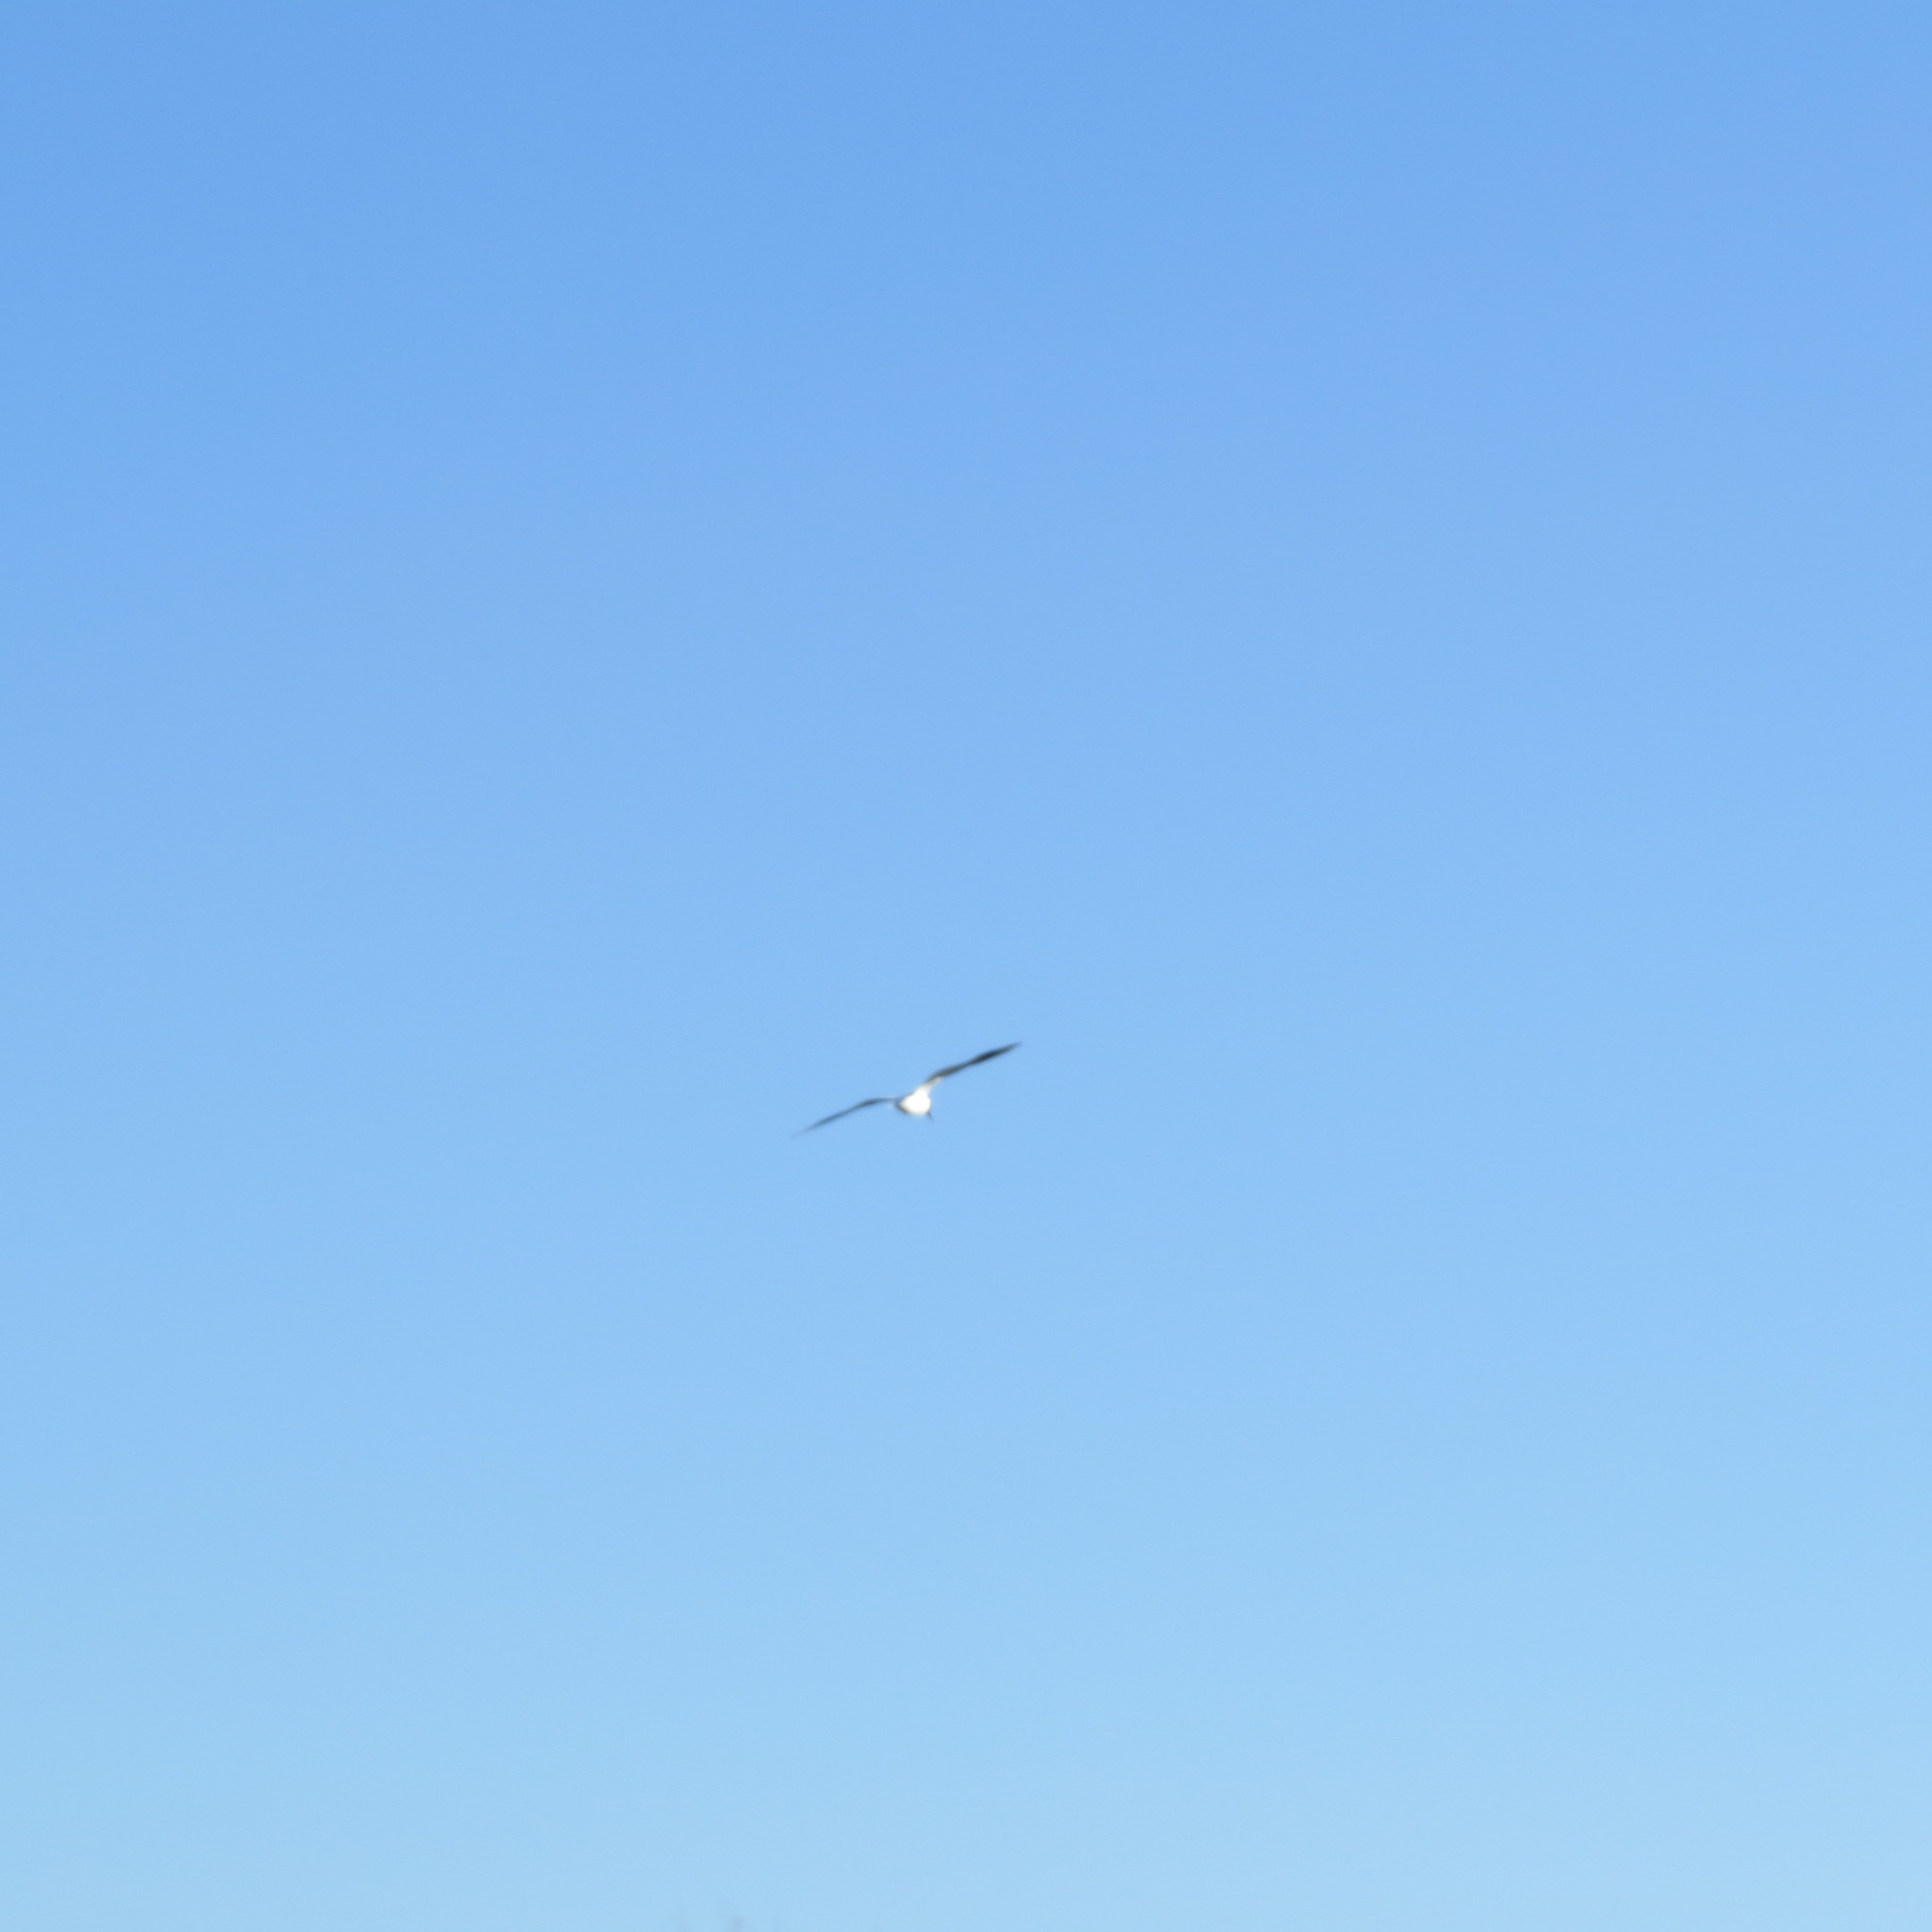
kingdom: Animalia
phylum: Chordata
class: Aves
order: Charadriiformes
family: Laridae
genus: Chroicocephalus
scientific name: Chroicocephalus ridibundus
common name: Black-headed gull
